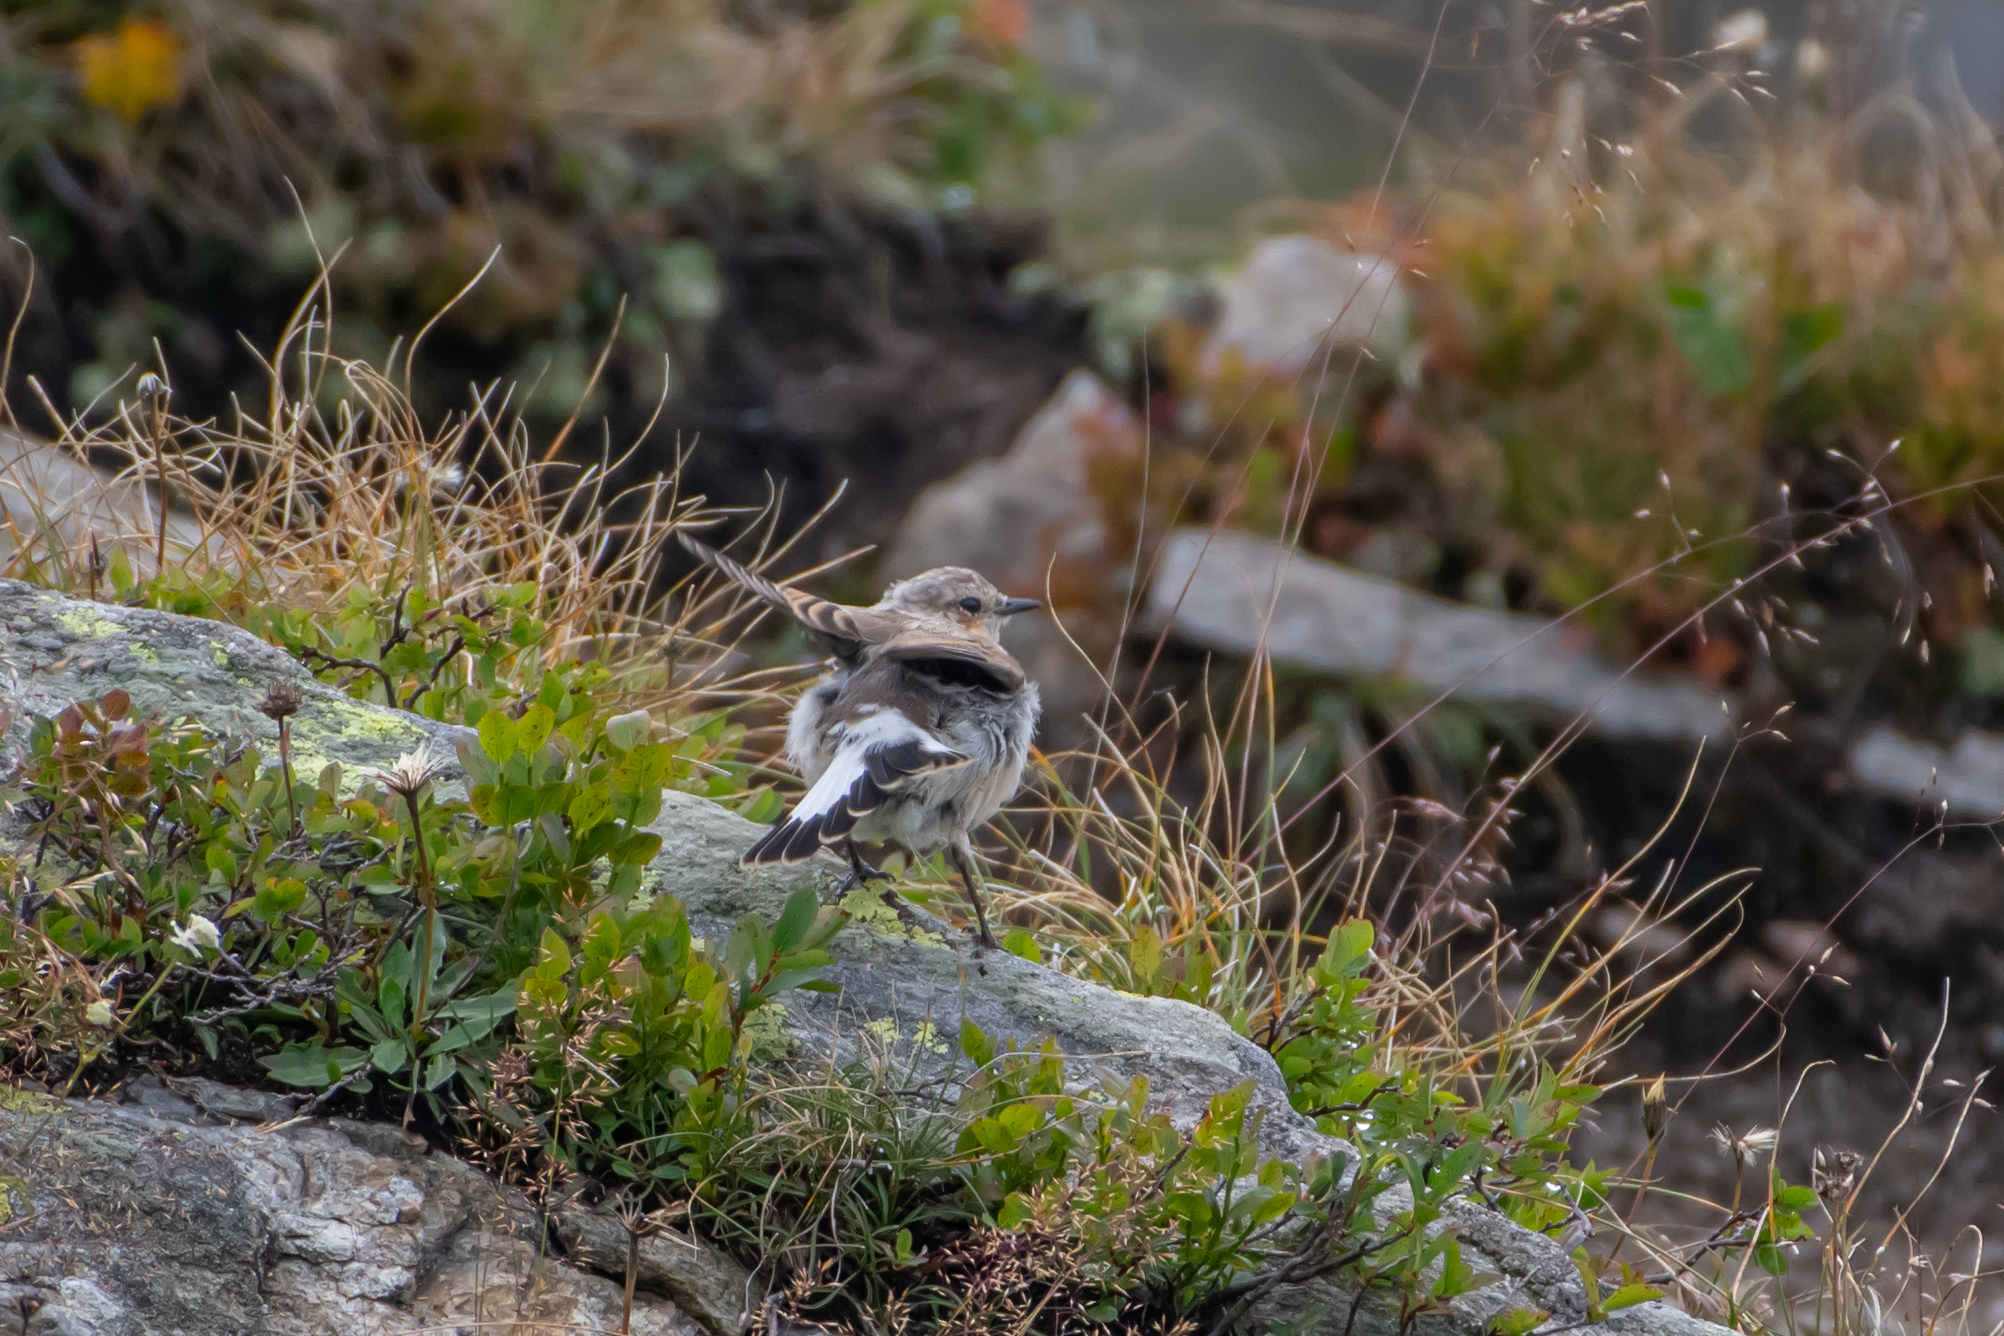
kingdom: Animalia
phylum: Chordata
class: Aves
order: Passeriformes
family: Muscicapidae
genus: Oenanthe
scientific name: Oenanthe oenanthe
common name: Northern wheatear
